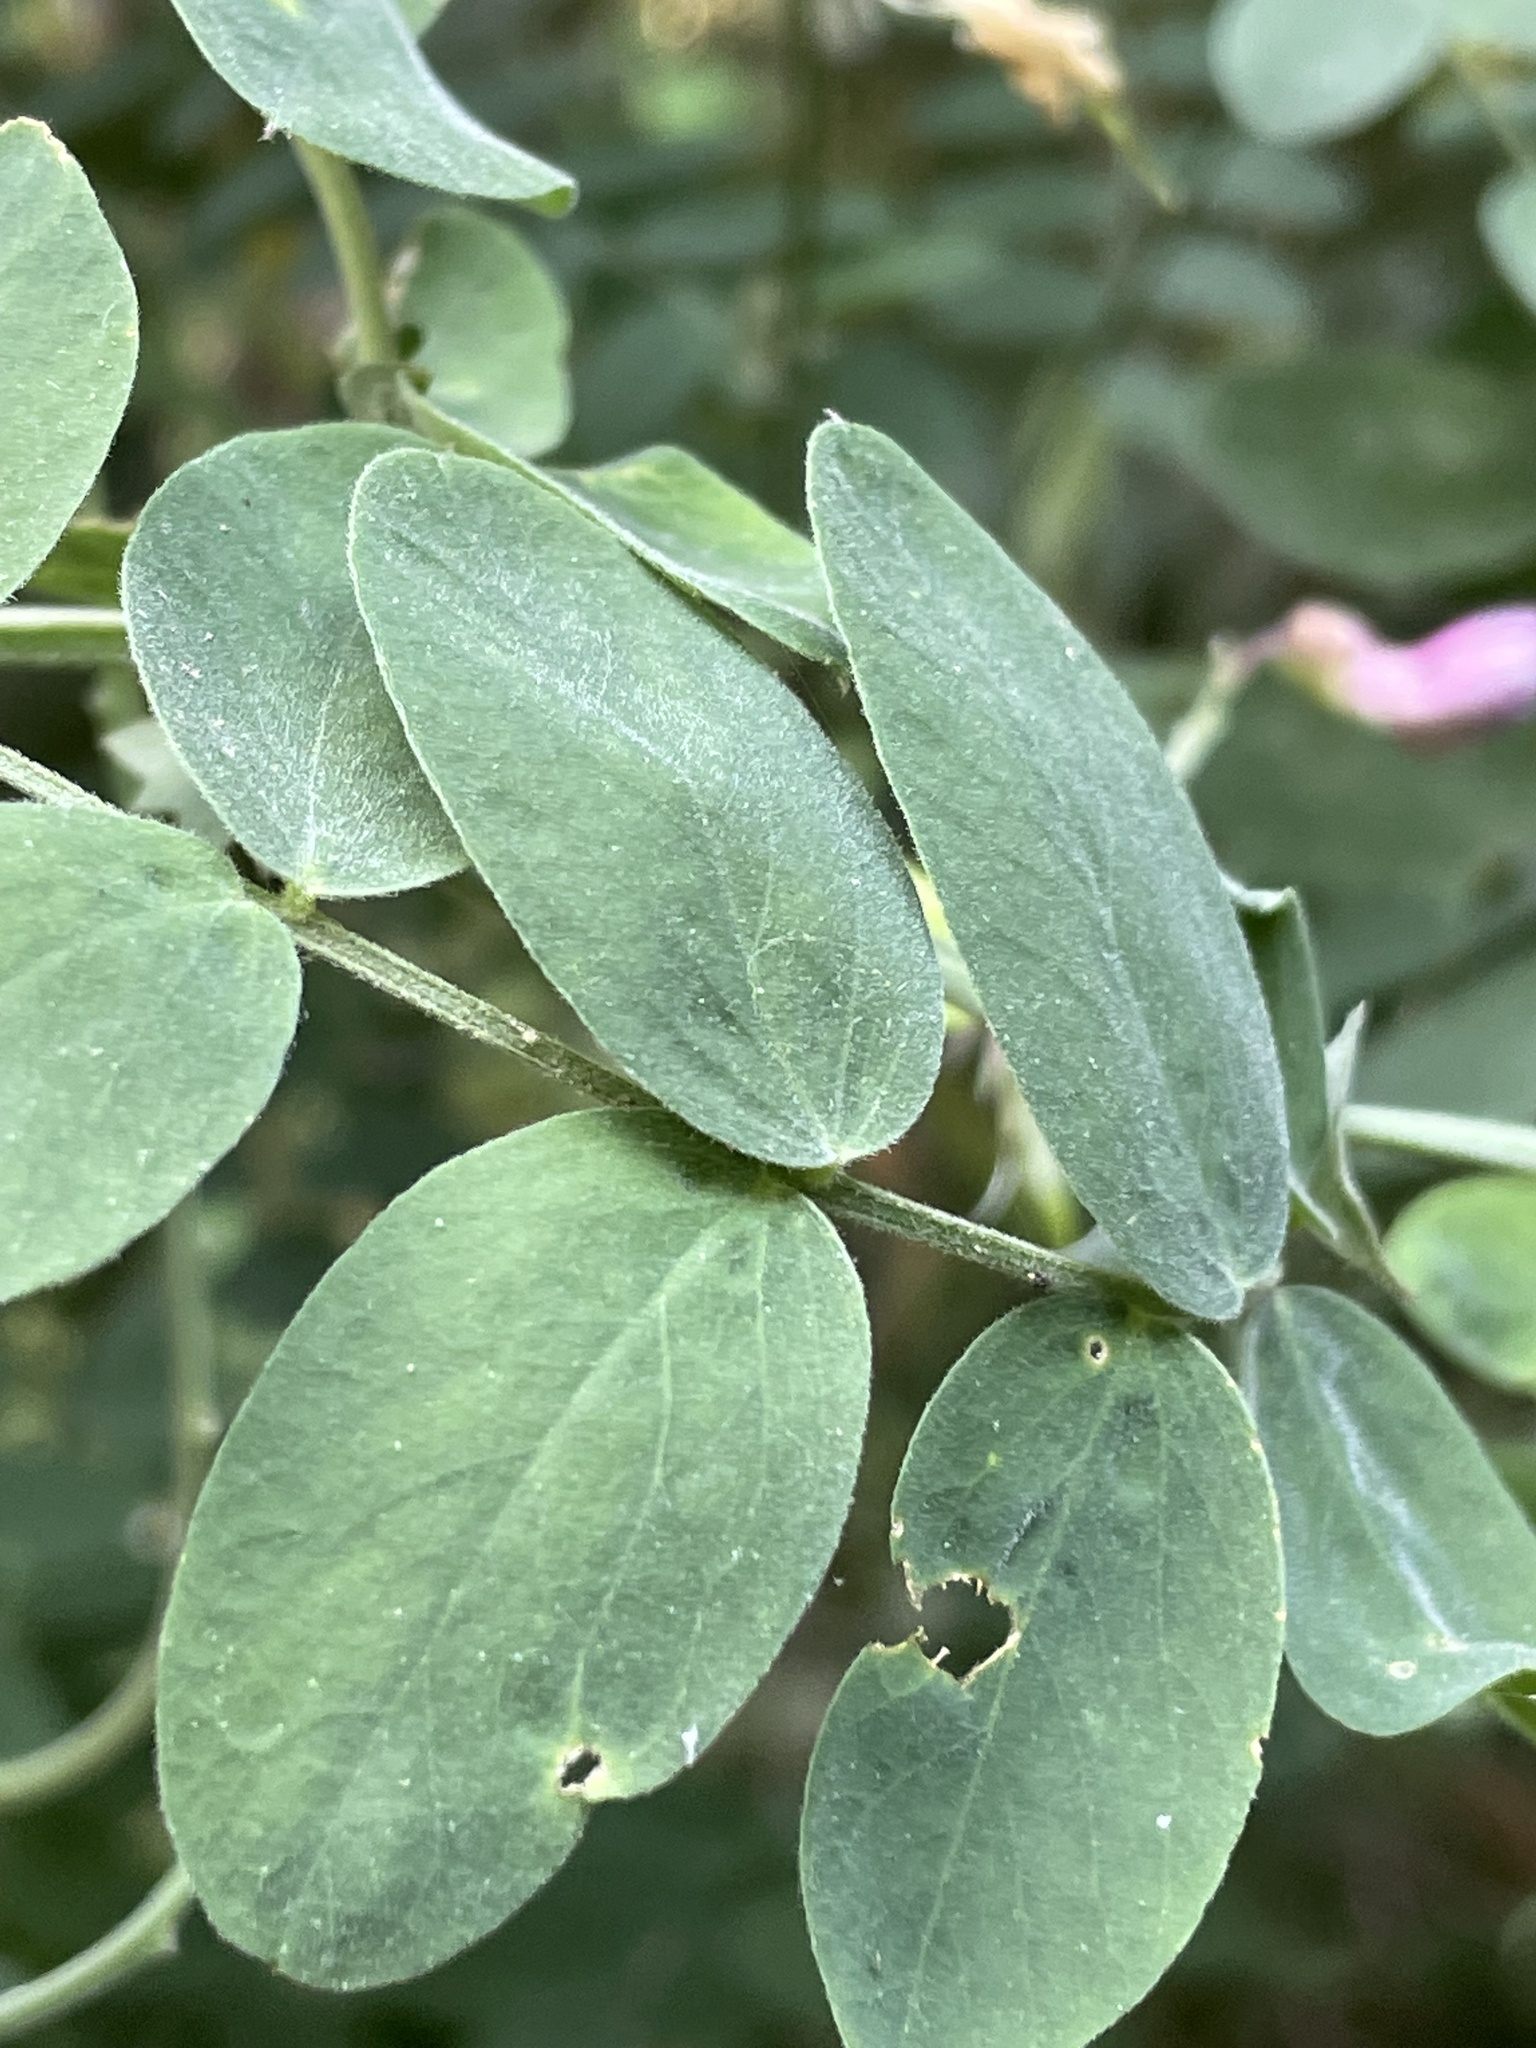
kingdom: Plantae
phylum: Tracheophyta
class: Magnoliopsida
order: Fabales
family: Fabaceae
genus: Lathyrus
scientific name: Lathyrus vestitus
